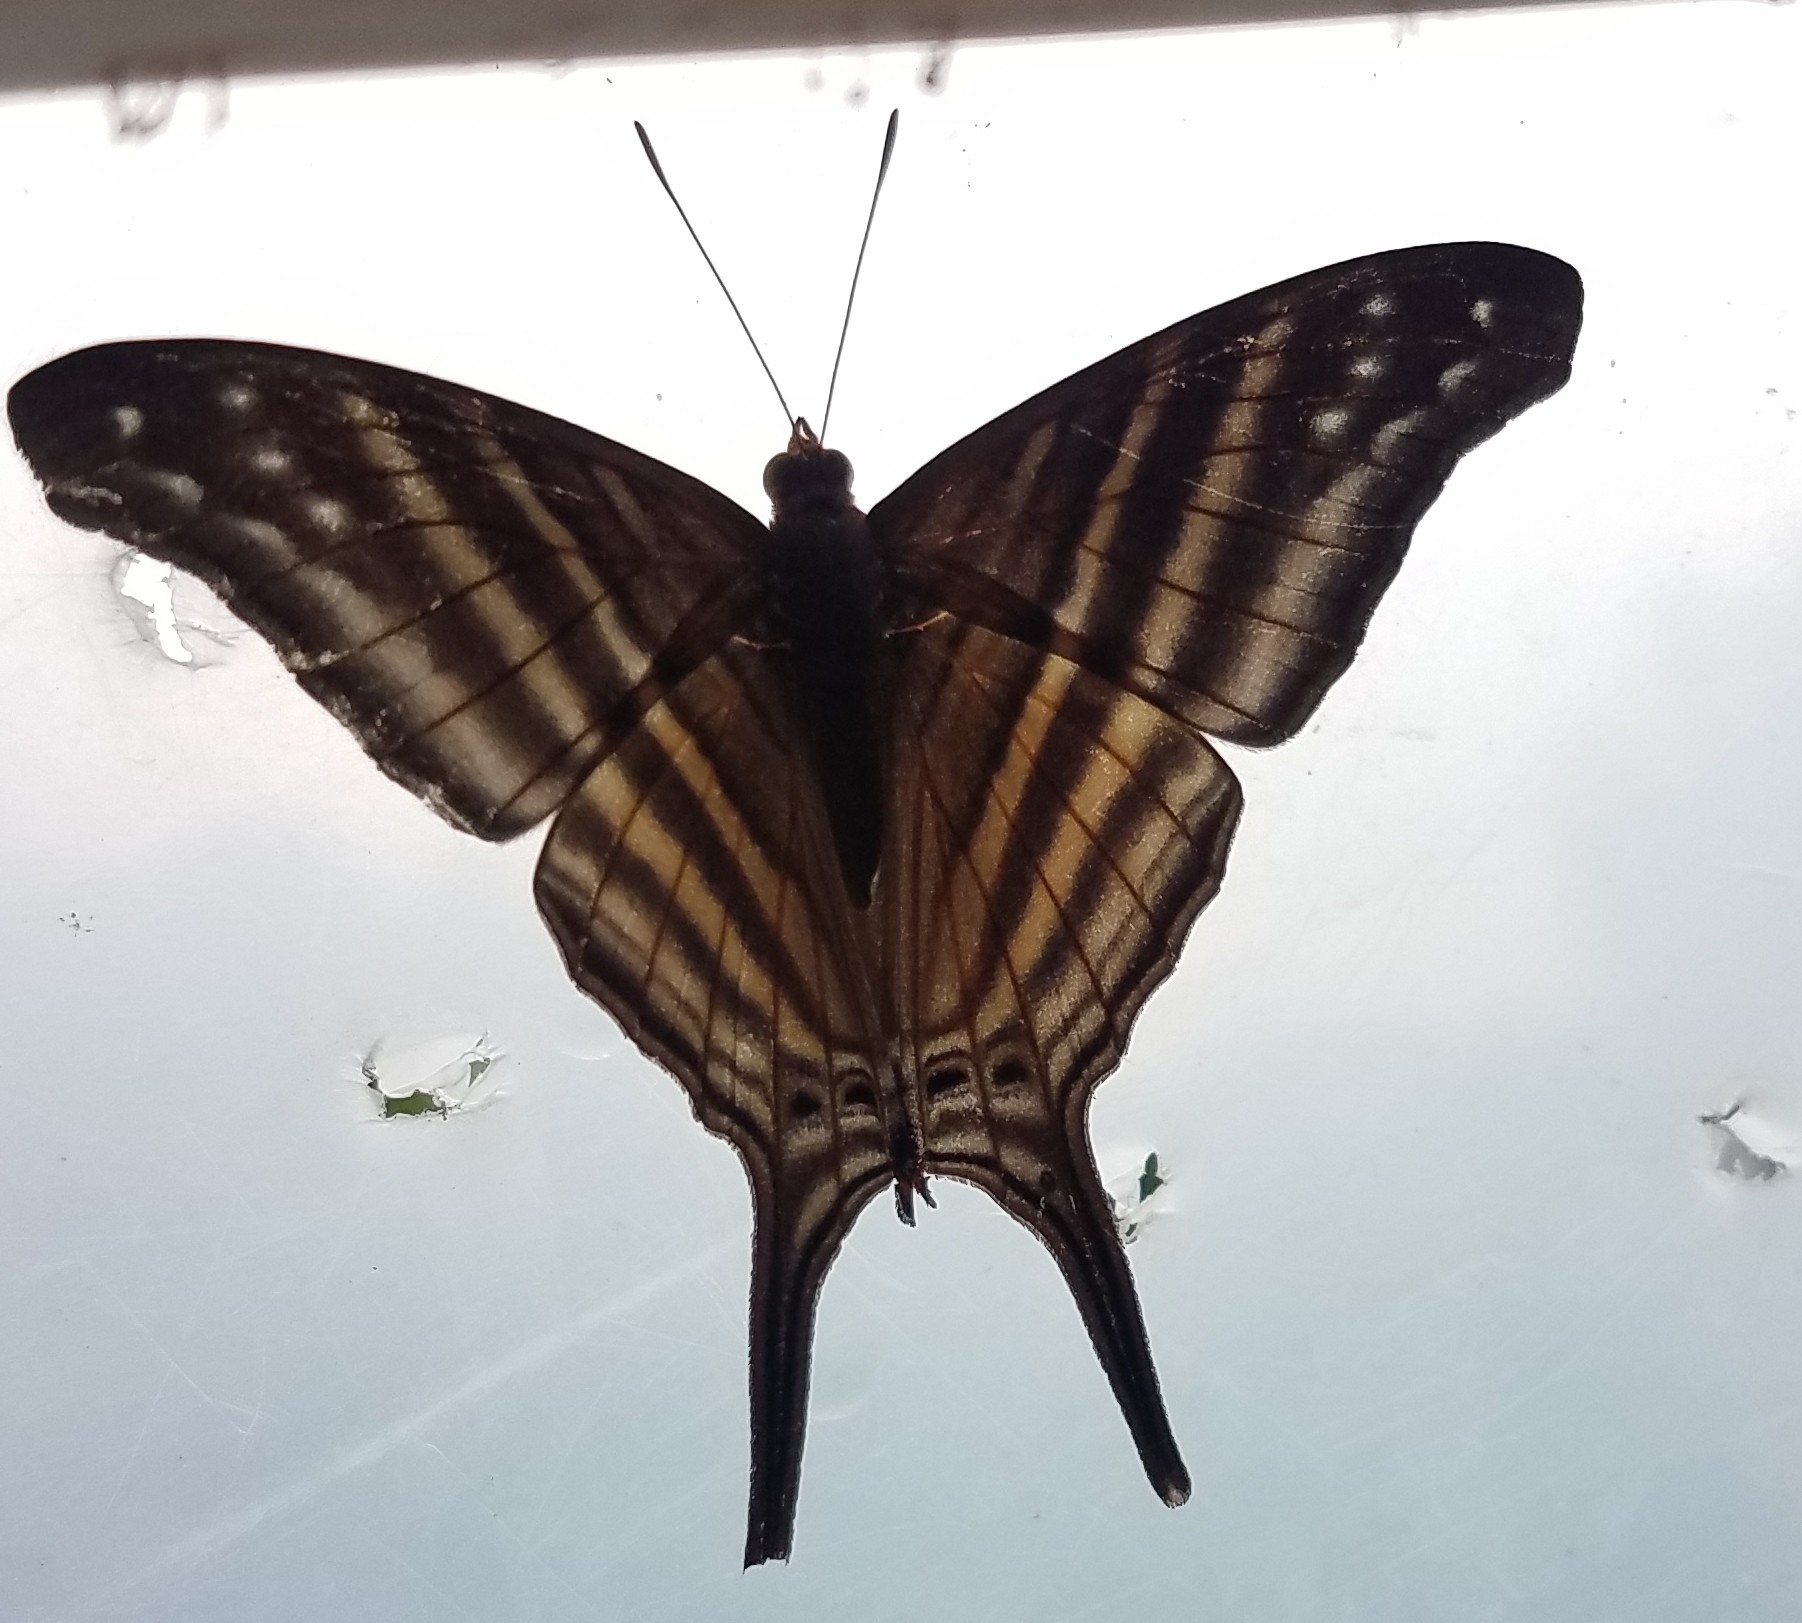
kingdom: Animalia
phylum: Arthropoda
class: Insecta
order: Lepidoptera
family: Nymphalidae
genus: Marpesia
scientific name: Marpesia chiron
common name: Many-banded daggerwing
